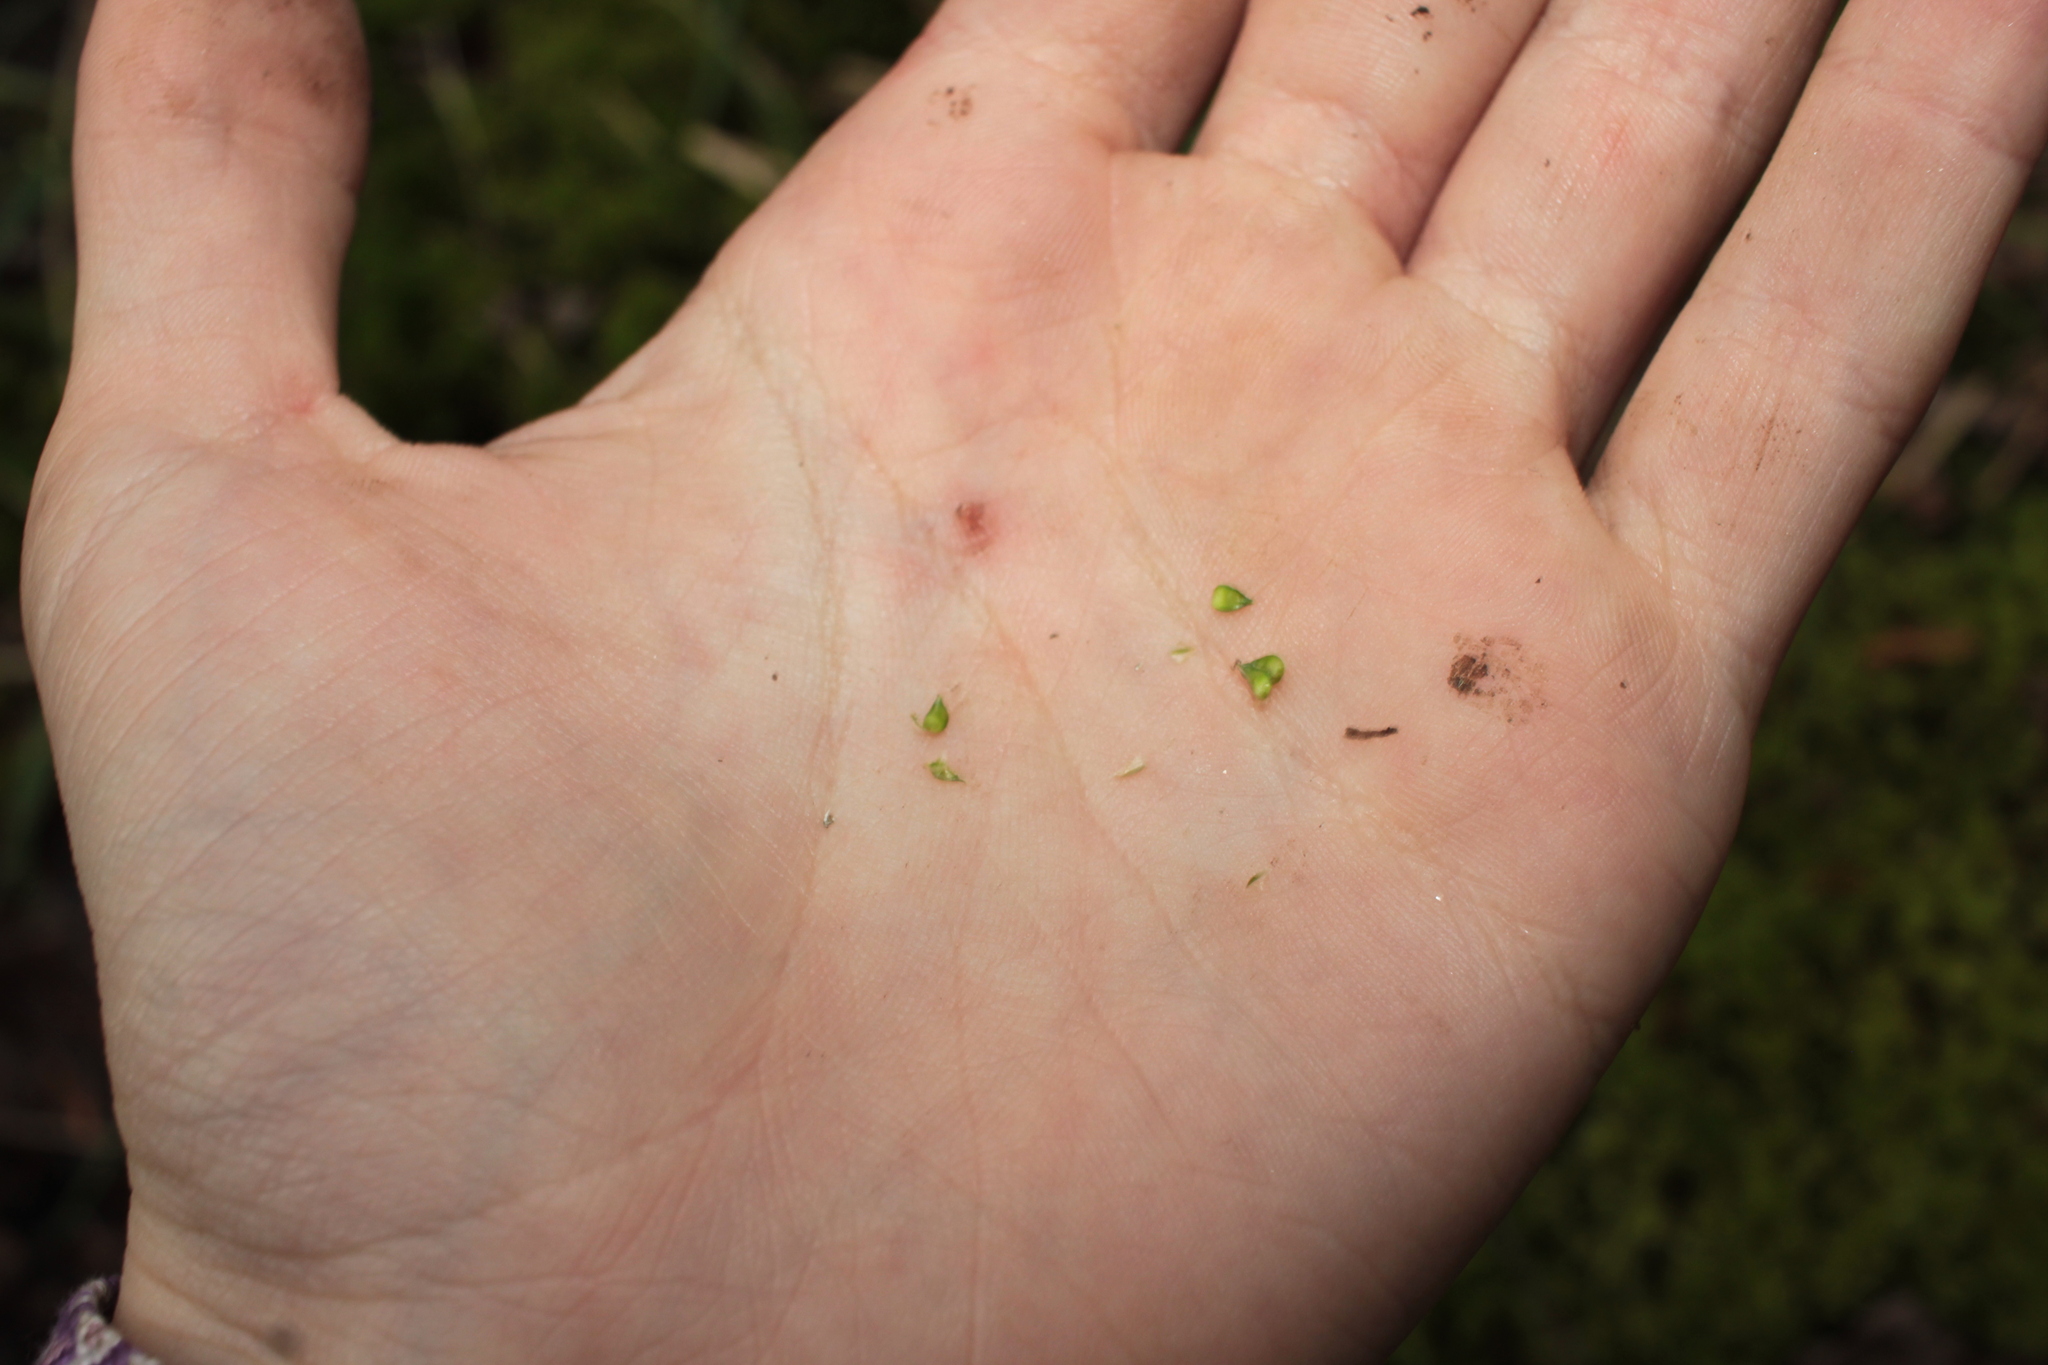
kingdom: Plantae
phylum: Tracheophyta
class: Liliopsida
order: Poales
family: Cyperaceae
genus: Carex
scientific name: Carex atlantica
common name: Atlantic sedge
